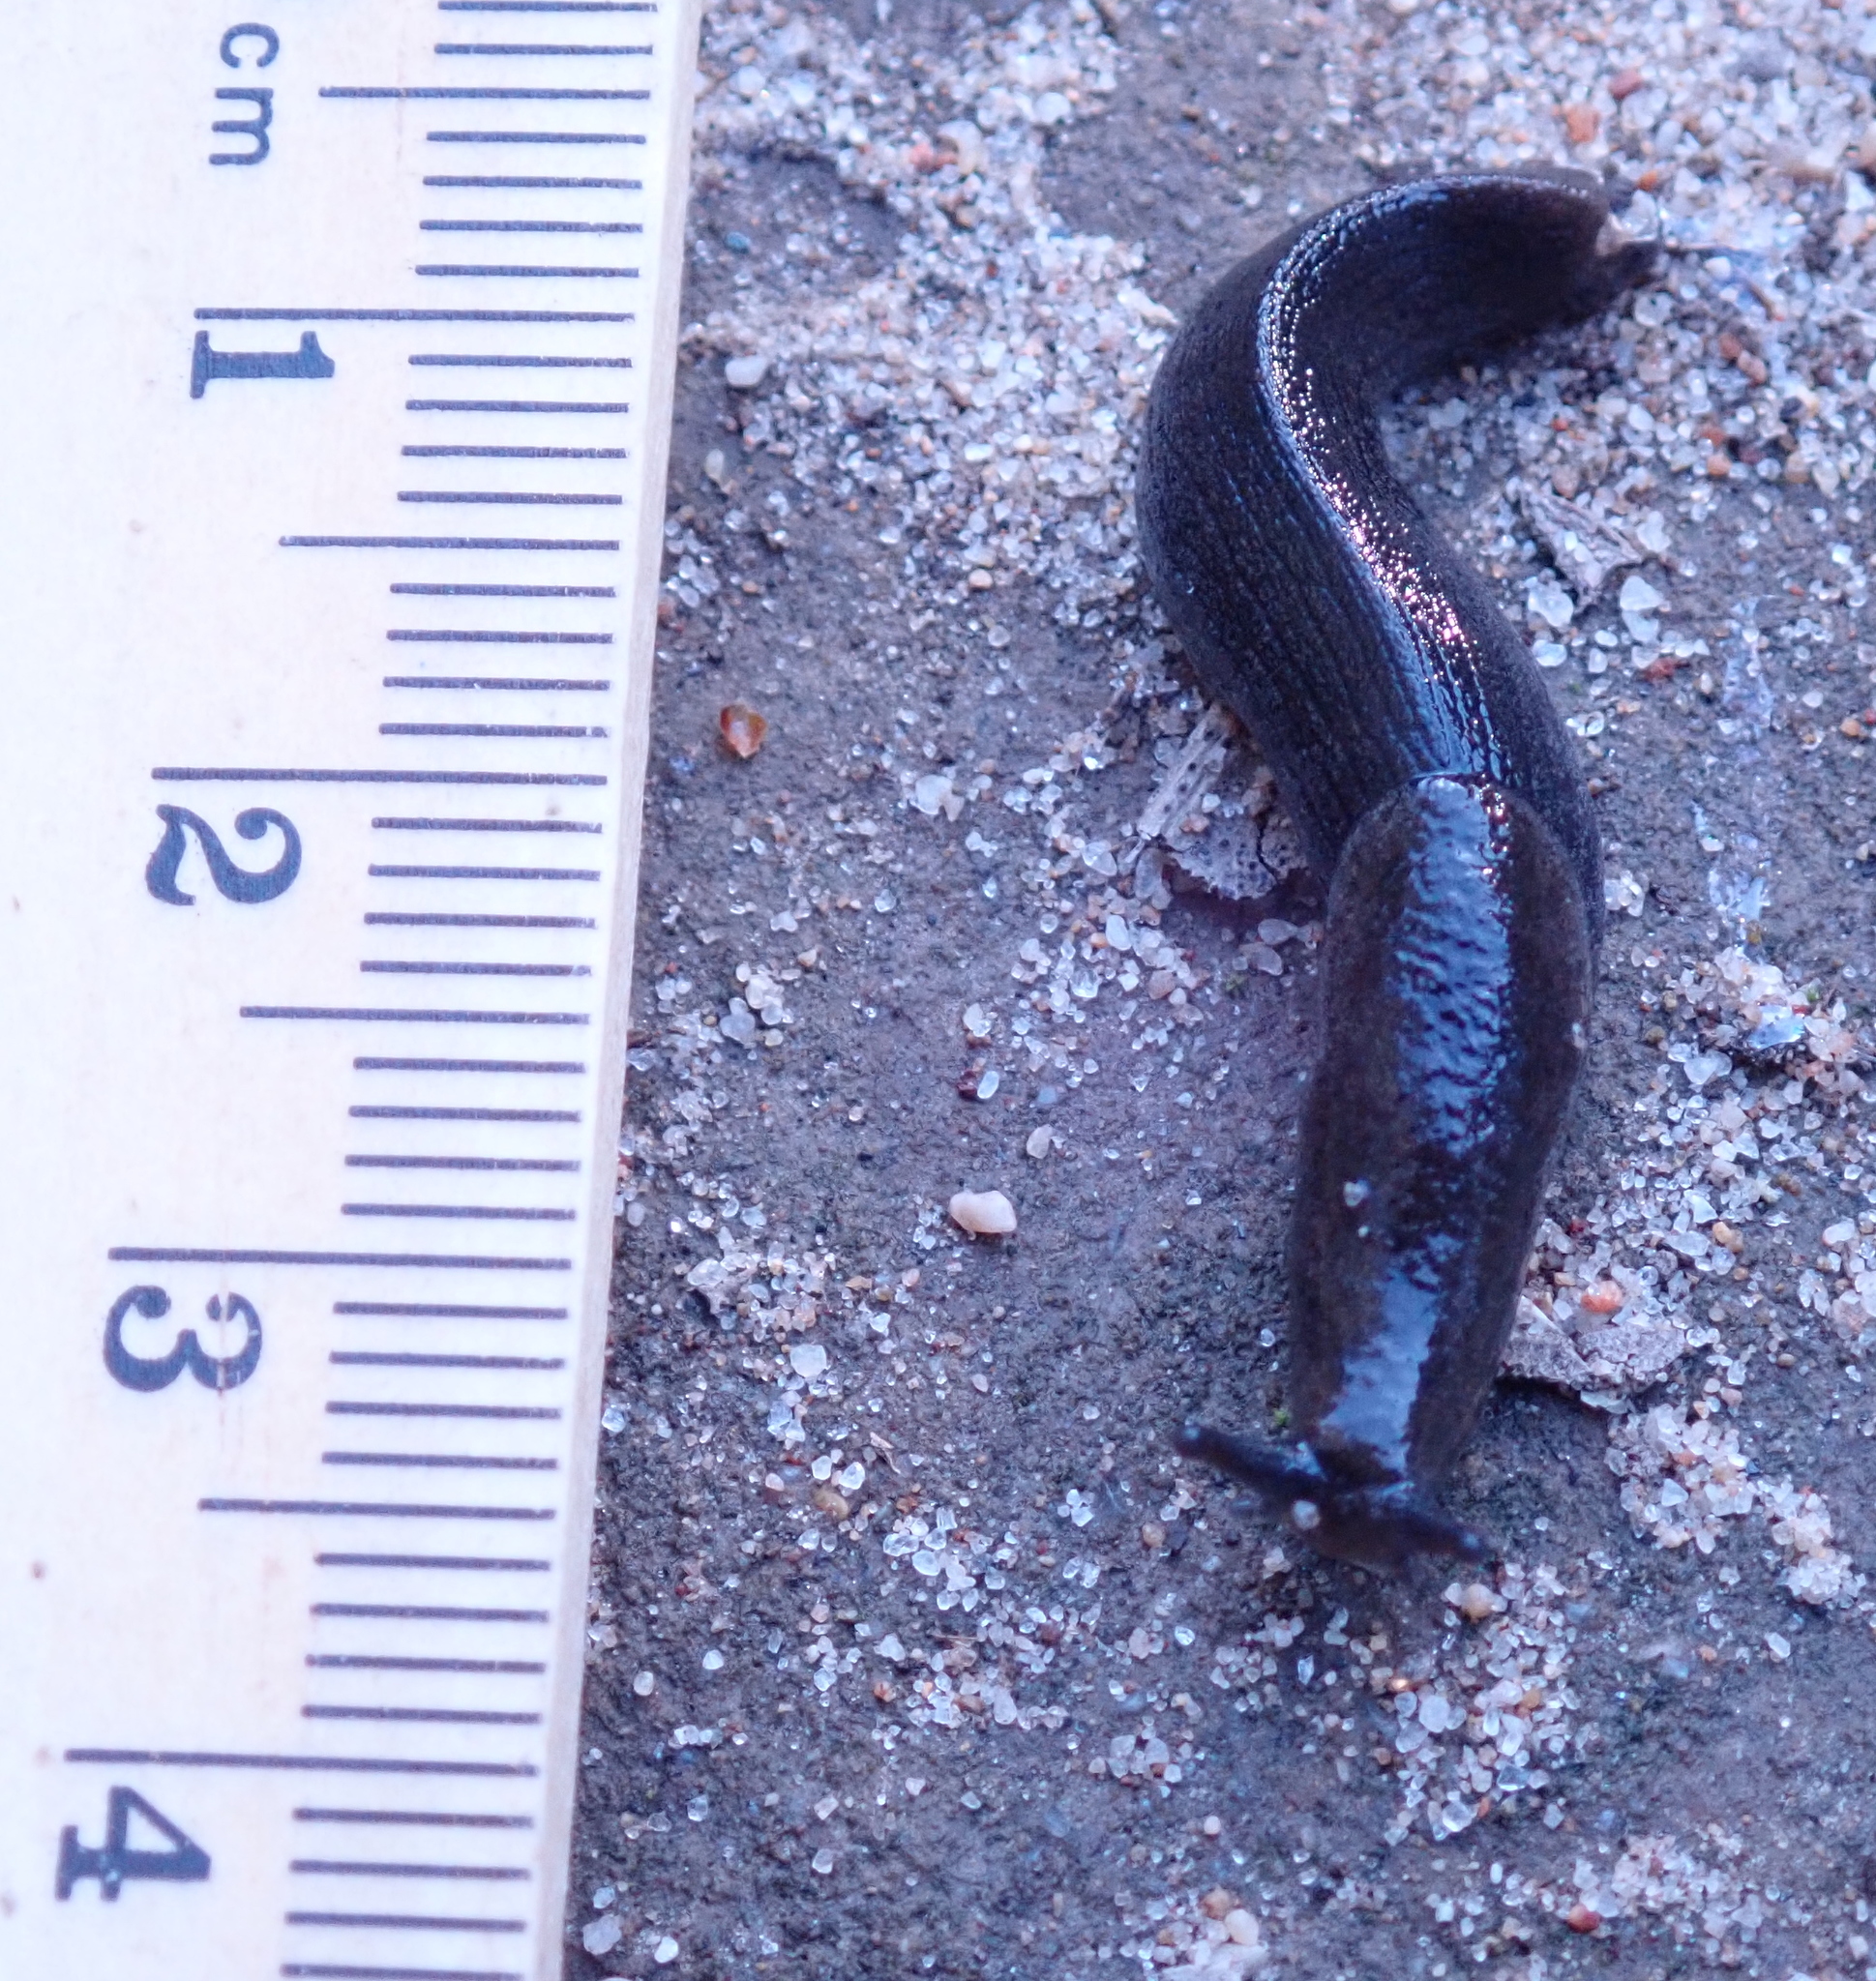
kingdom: Animalia
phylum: Mollusca
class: Gastropoda
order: Stylommatophora
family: Ariolimacidae
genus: Hesperarion
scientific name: Hesperarion niger
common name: Black western slug
